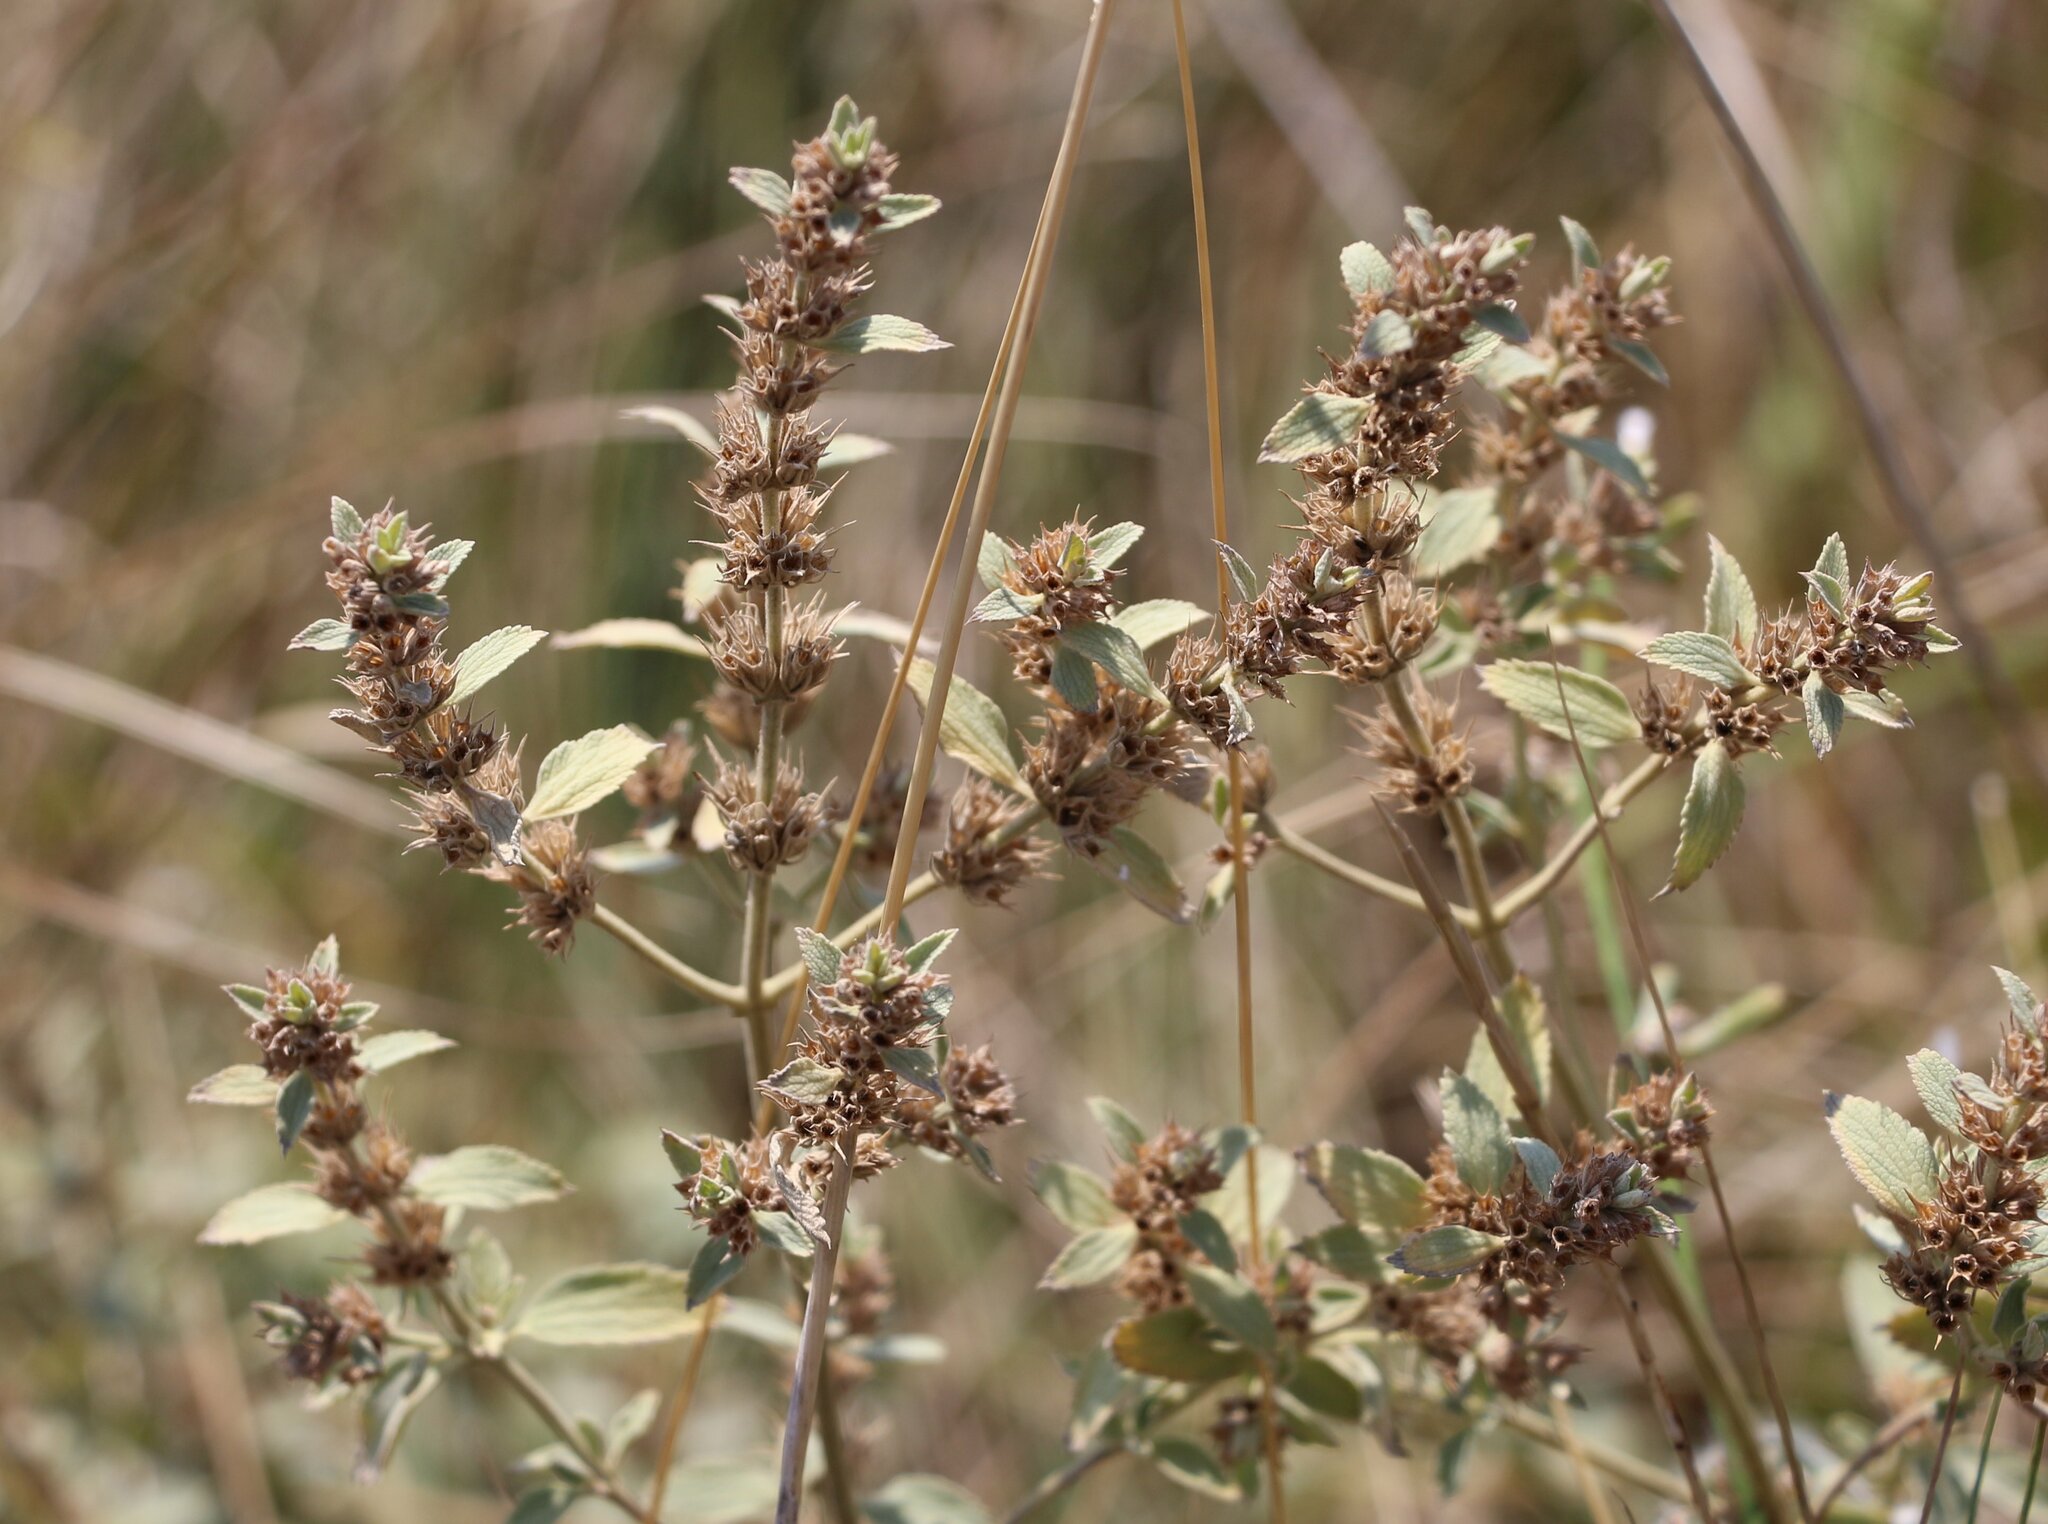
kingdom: Plantae
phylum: Tracheophyta
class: Magnoliopsida
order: Lamiales
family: Lamiaceae
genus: Marrubium
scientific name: Marrubium peregrinum
